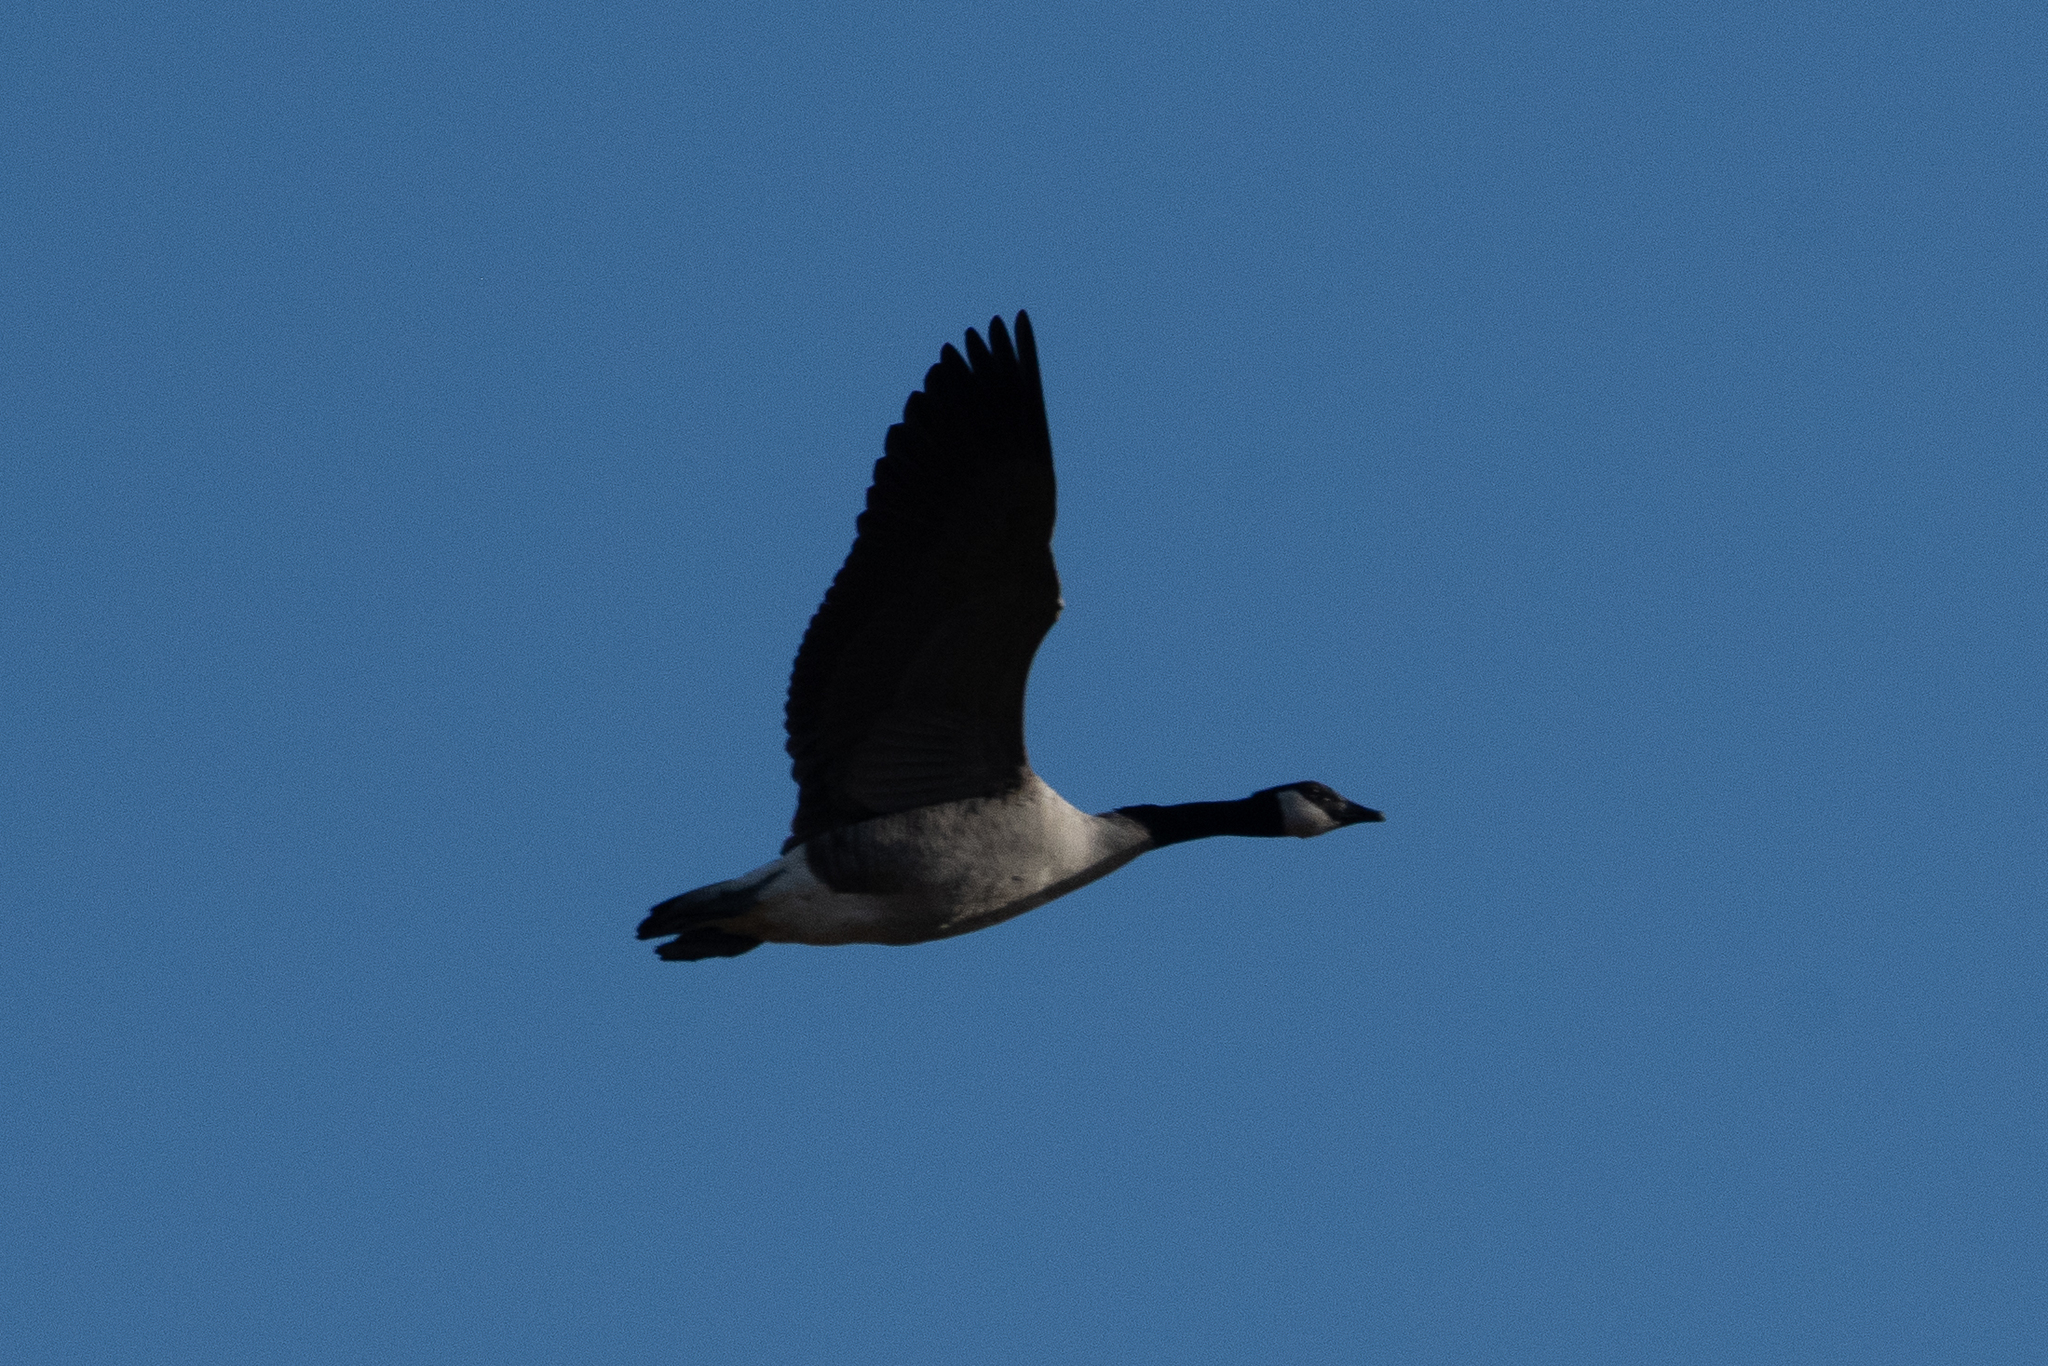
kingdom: Animalia
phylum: Chordata
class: Aves
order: Anseriformes
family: Anatidae
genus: Branta
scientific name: Branta canadensis
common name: Canada goose
